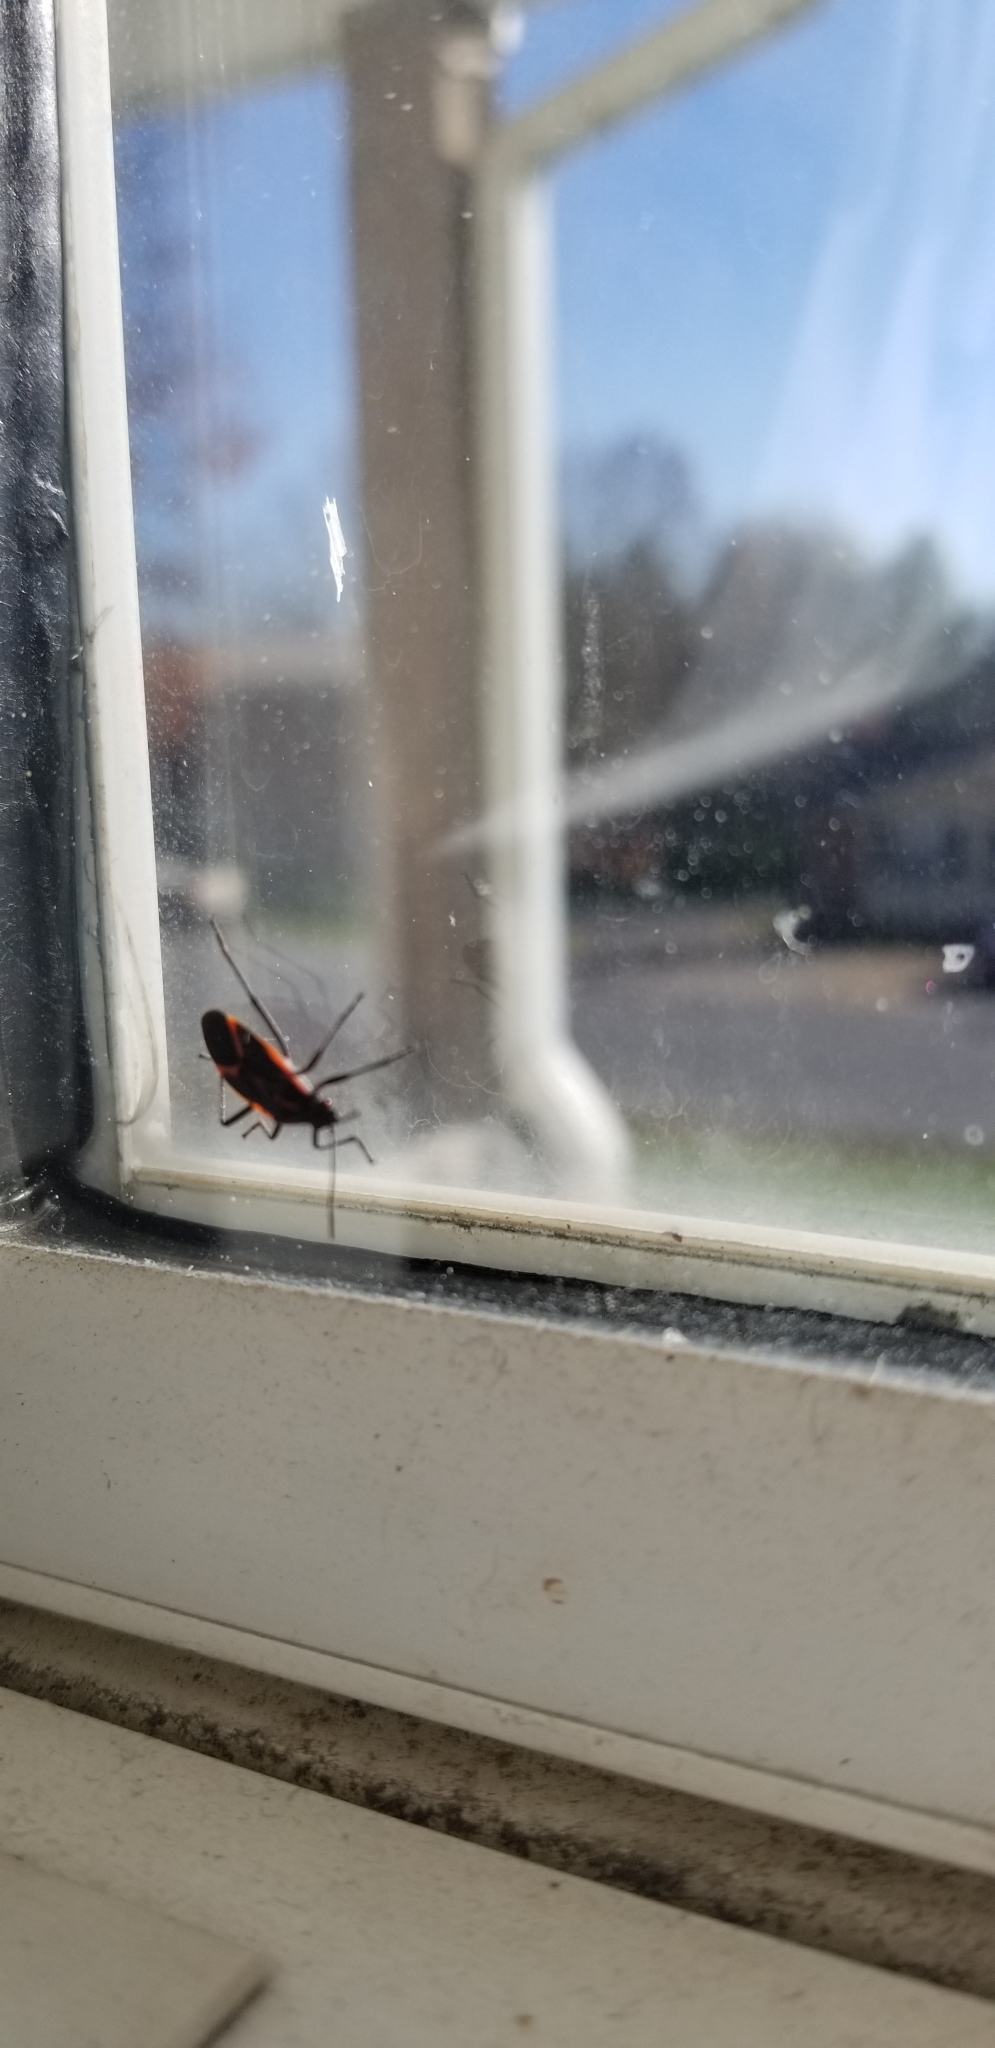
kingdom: Animalia
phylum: Arthropoda
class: Insecta
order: Hemiptera
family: Rhopalidae
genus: Boisea
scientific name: Boisea trivittata
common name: Boxelder bug
